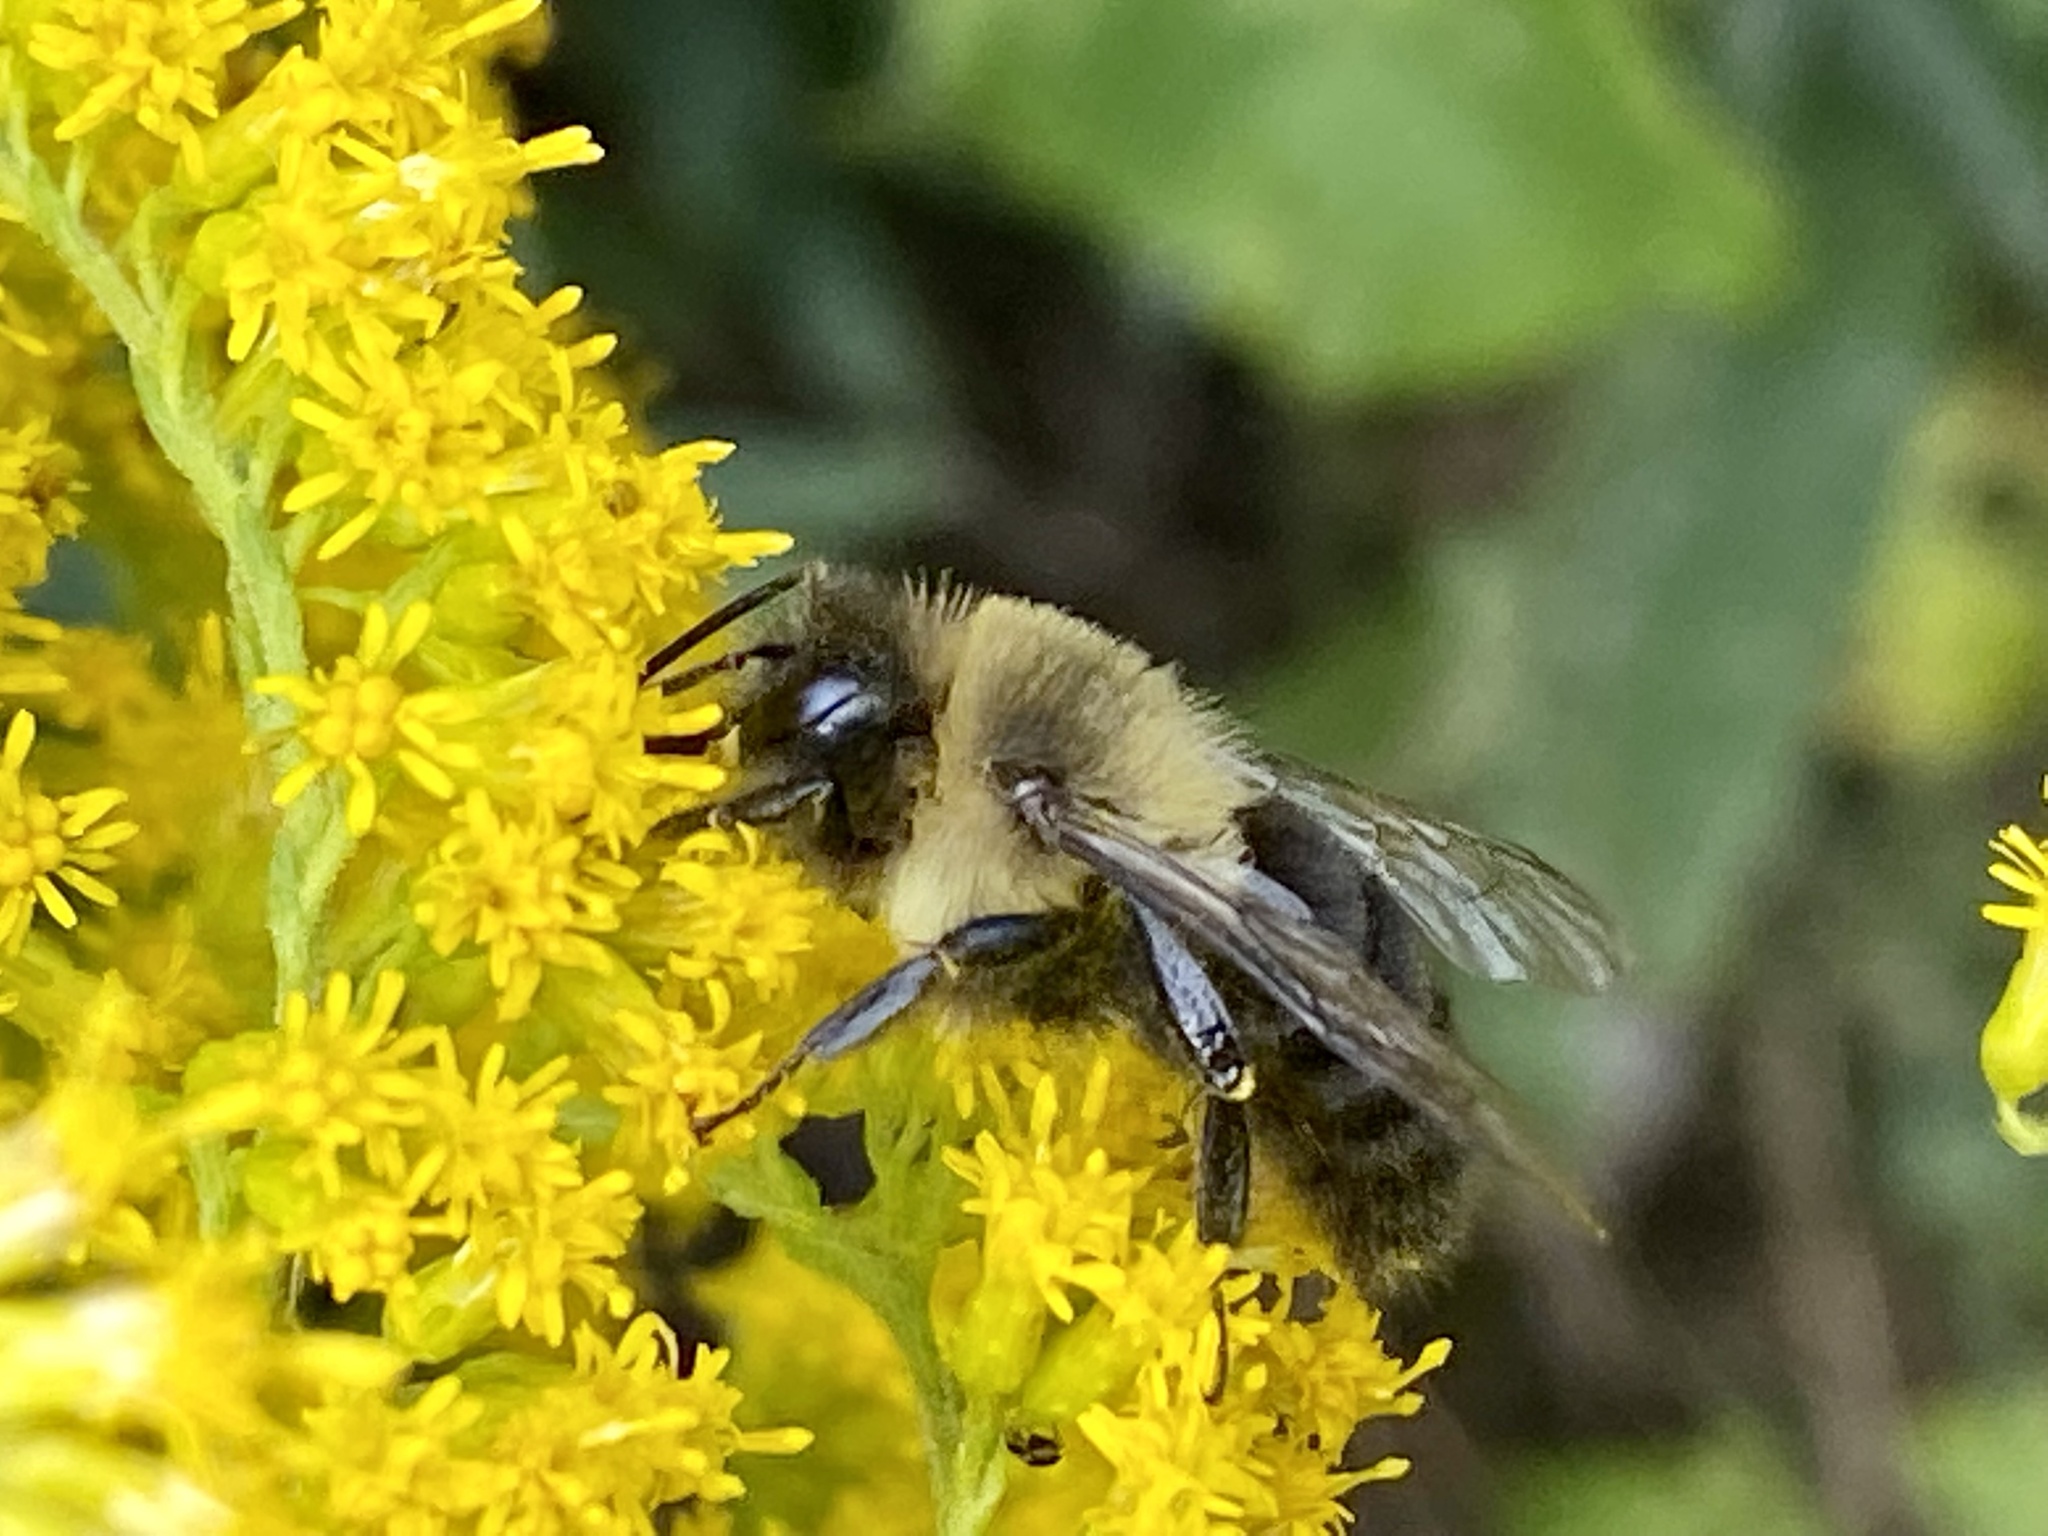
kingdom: Animalia
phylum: Arthropoda
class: Insecta
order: Hymenoptera
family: Apidae
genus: Bombus
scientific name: Bombus impatiens
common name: Common eastern bumble bee
